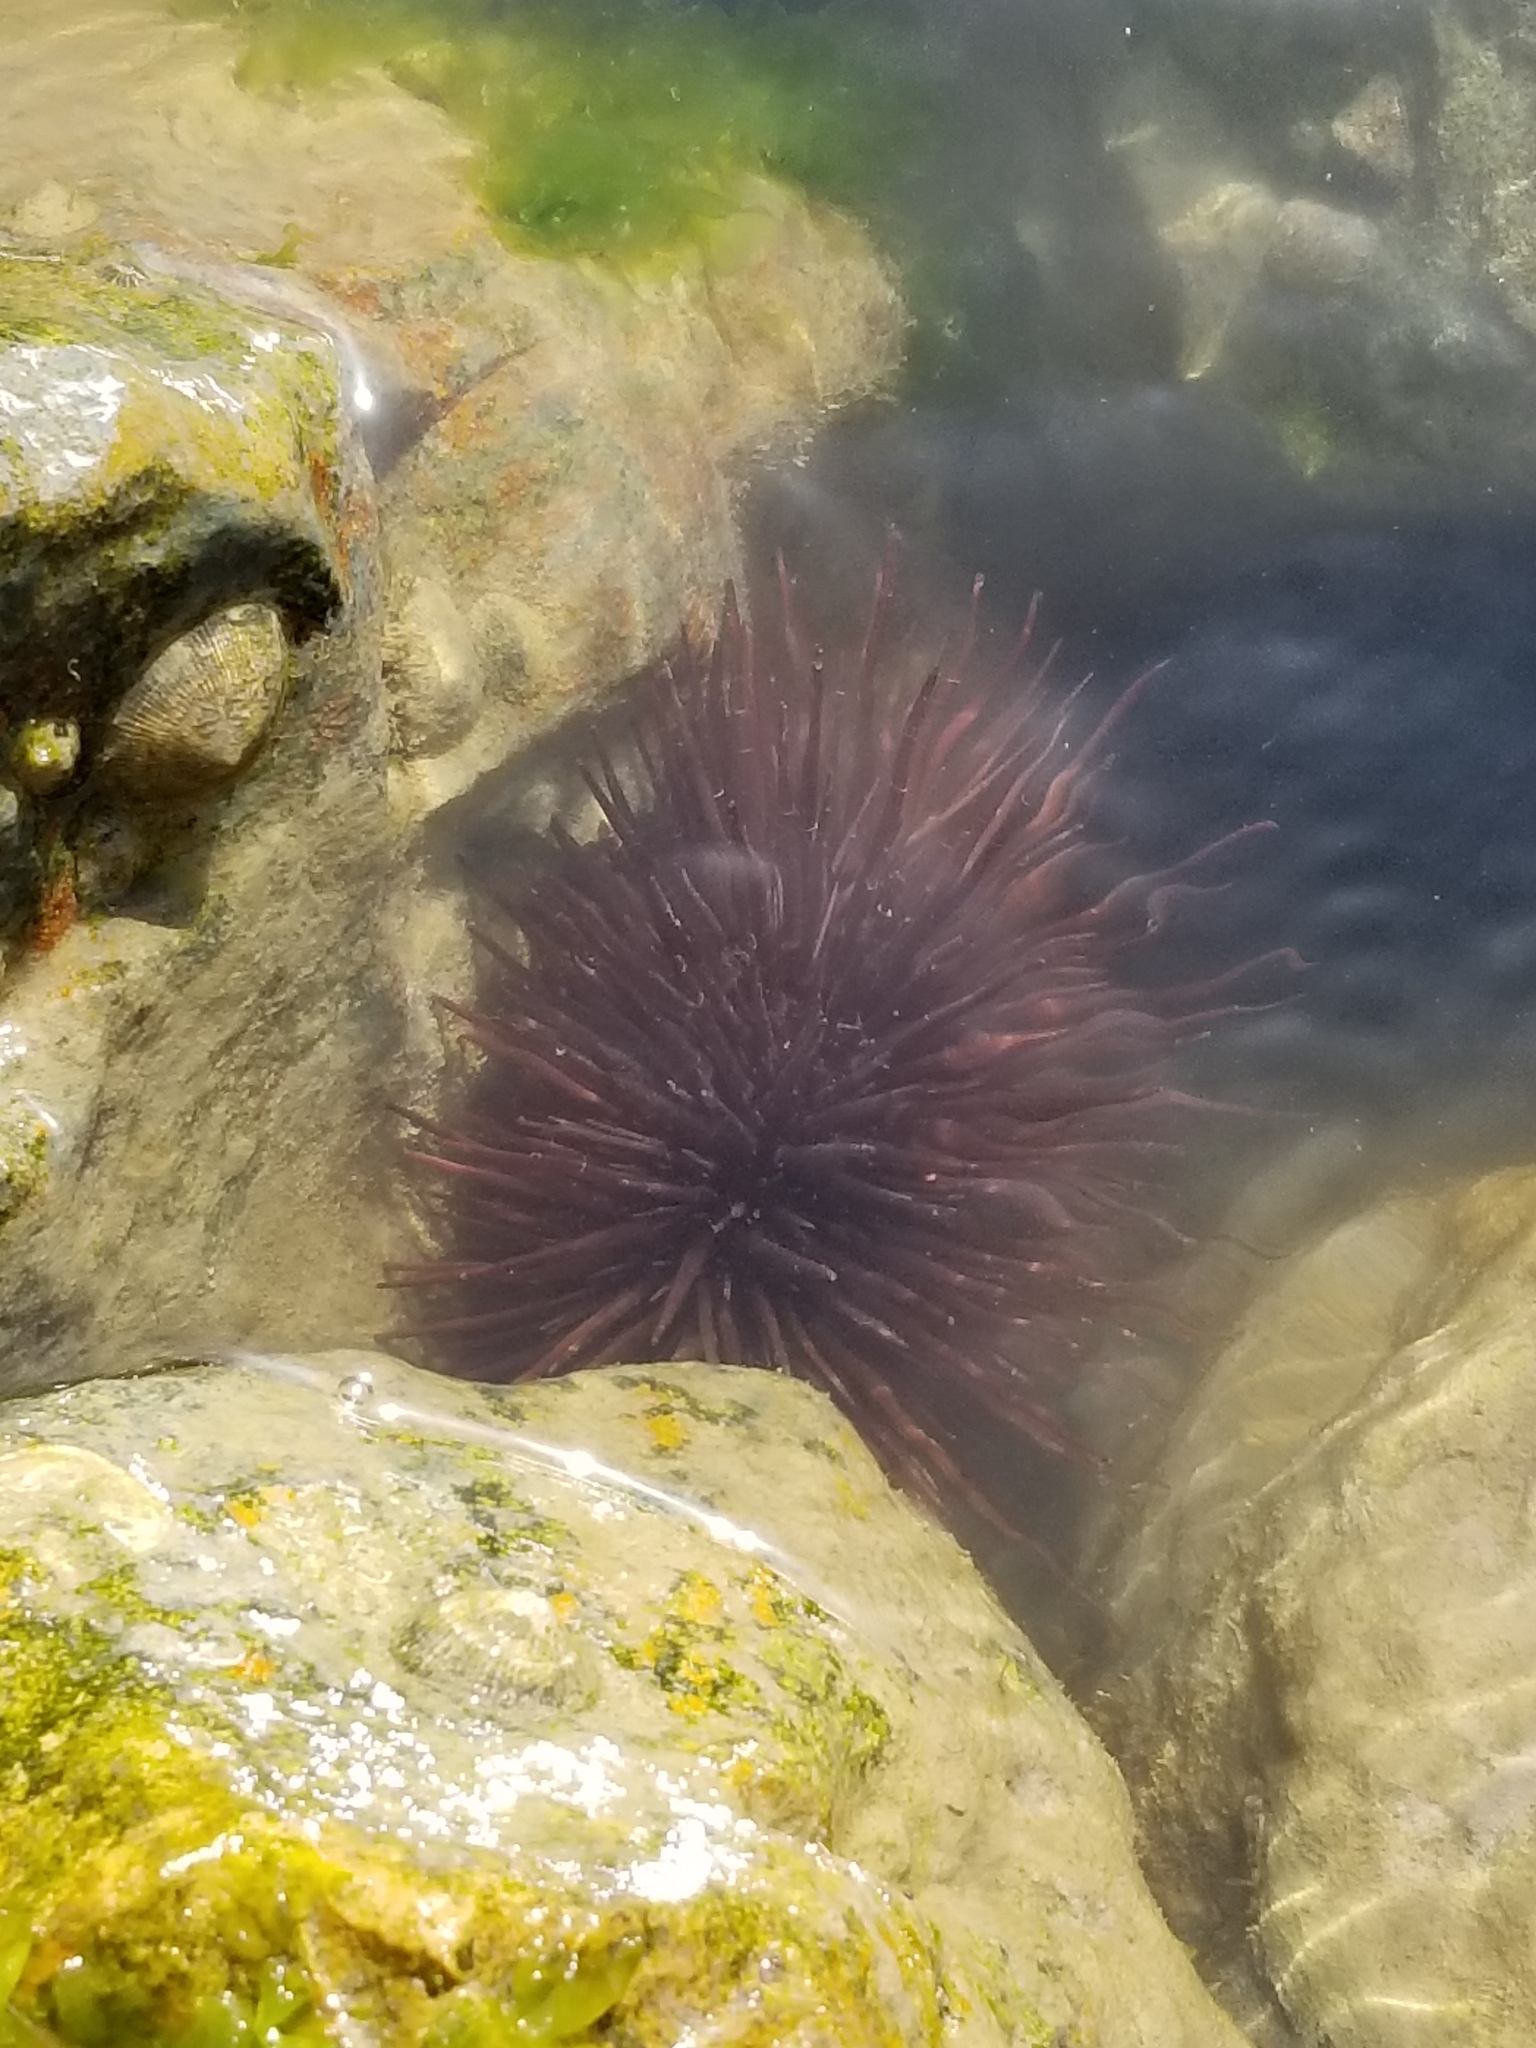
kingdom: Animalia
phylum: Echinodermata
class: Echinoidea
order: Camarodonta
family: Echinometridae
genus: Echinometra
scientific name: Echinometra lucunter
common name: Rock urchin
